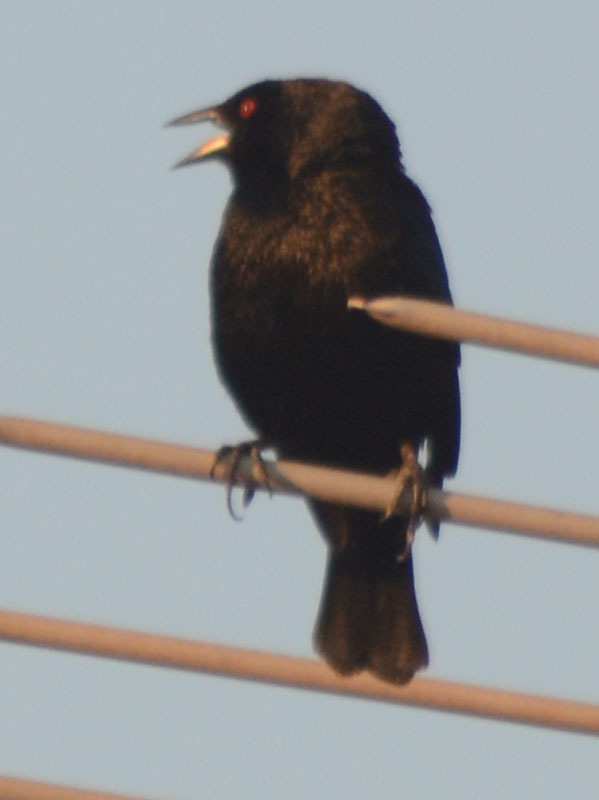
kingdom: Animalia
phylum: Chordata
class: Aves
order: Passeriformes
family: Icteridae
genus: Molothrus
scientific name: Molothrus aeneus
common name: Bronzed cowbird
